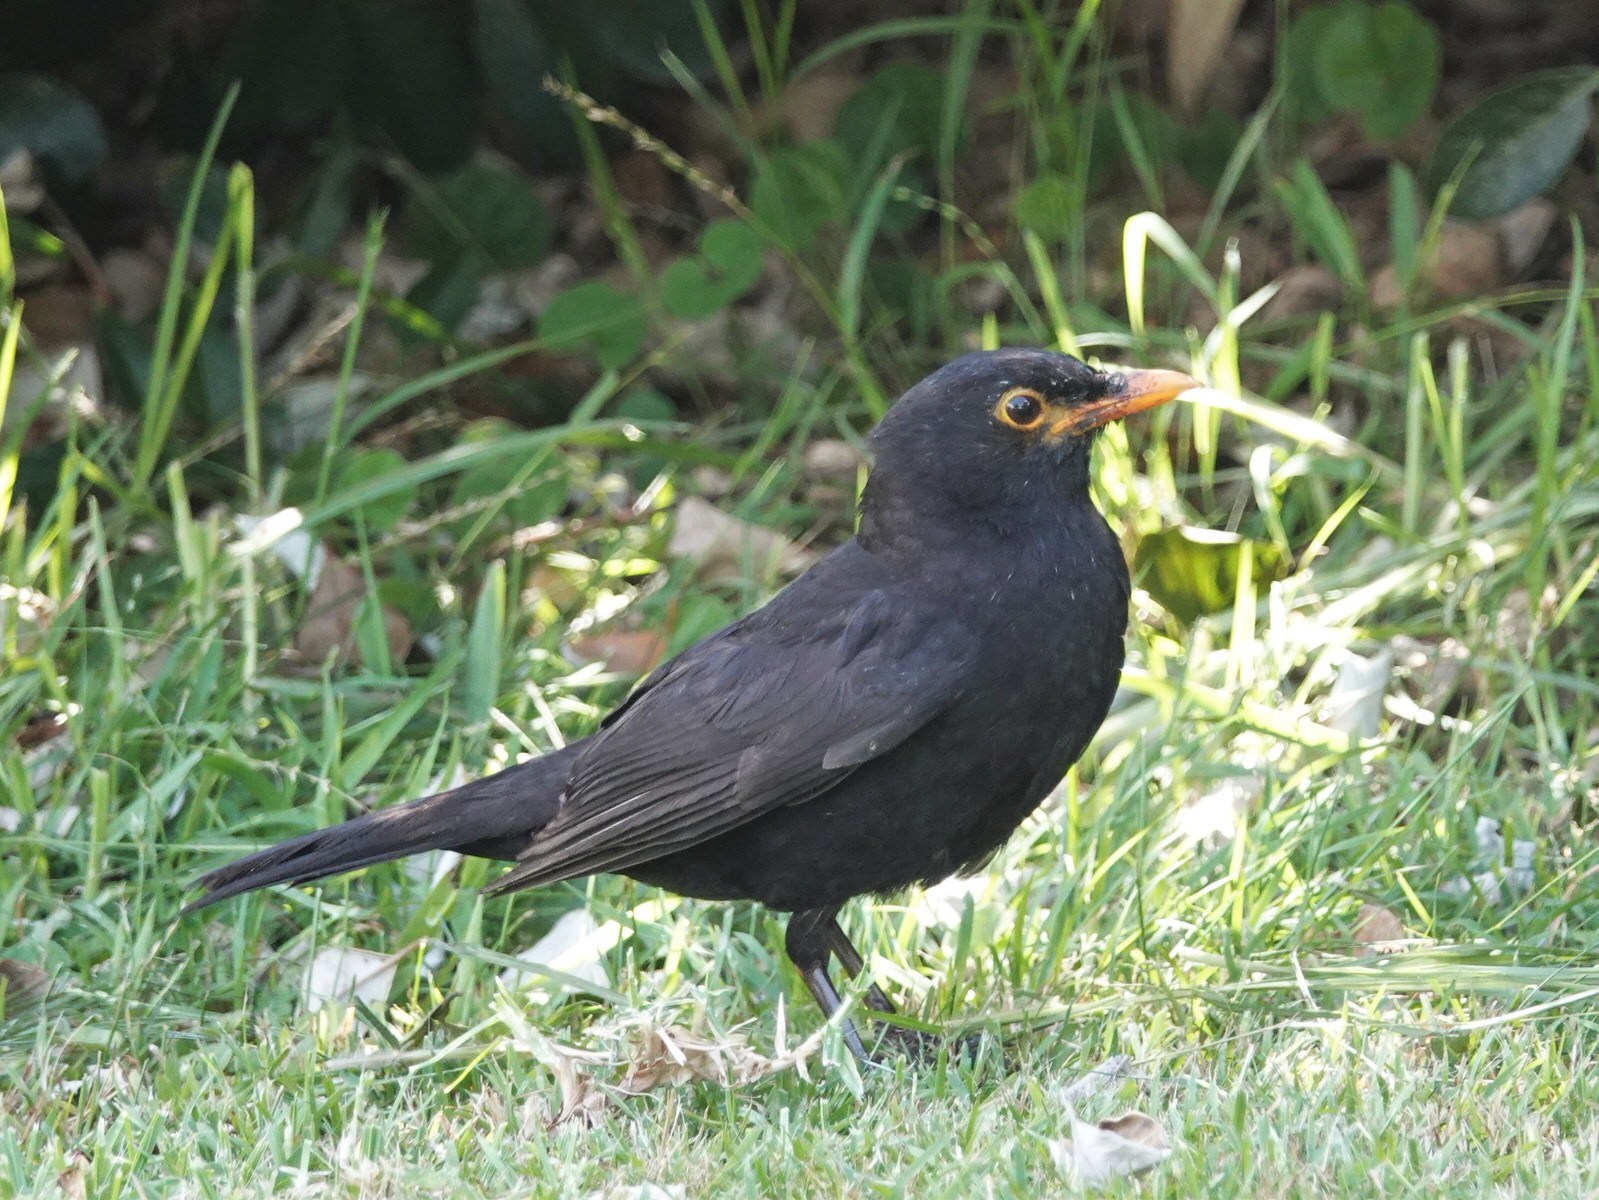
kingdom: Animalia
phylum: Chordata
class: Aves
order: Passeriformes
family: Turdidae
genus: Turdus
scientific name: Turdus merula
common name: Common blackbird
